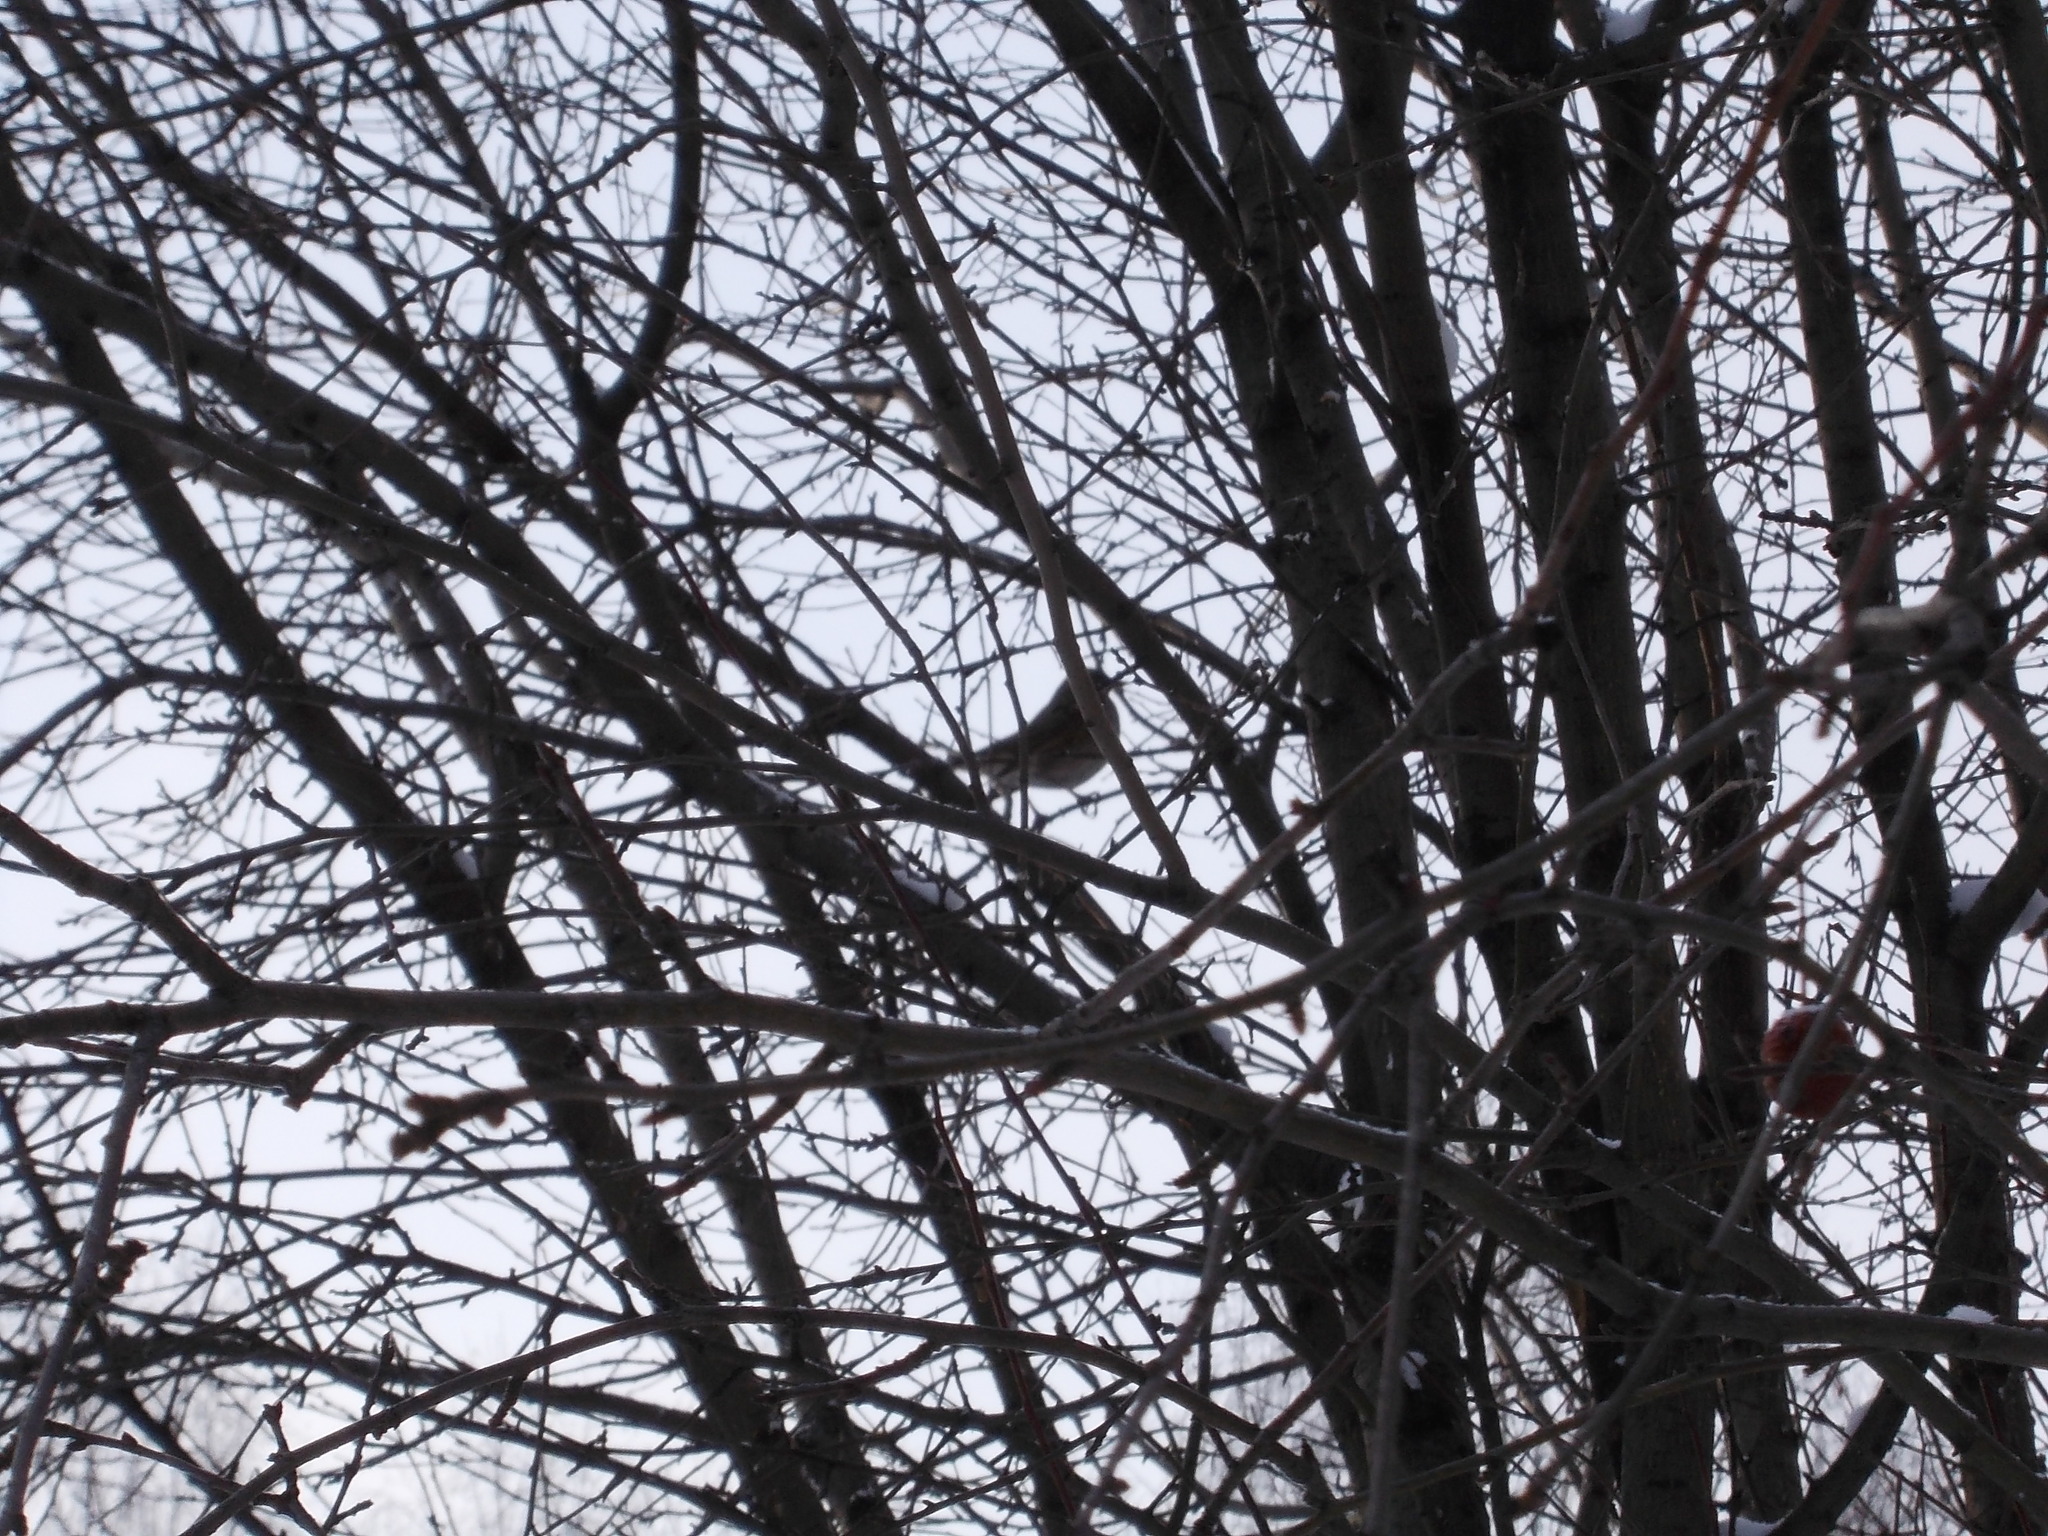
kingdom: Animalia
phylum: Chordata
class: Aves
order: Passeriformes
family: Turdidae
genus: Turdus
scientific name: Turdus atrogularis
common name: Black-throated thrush
